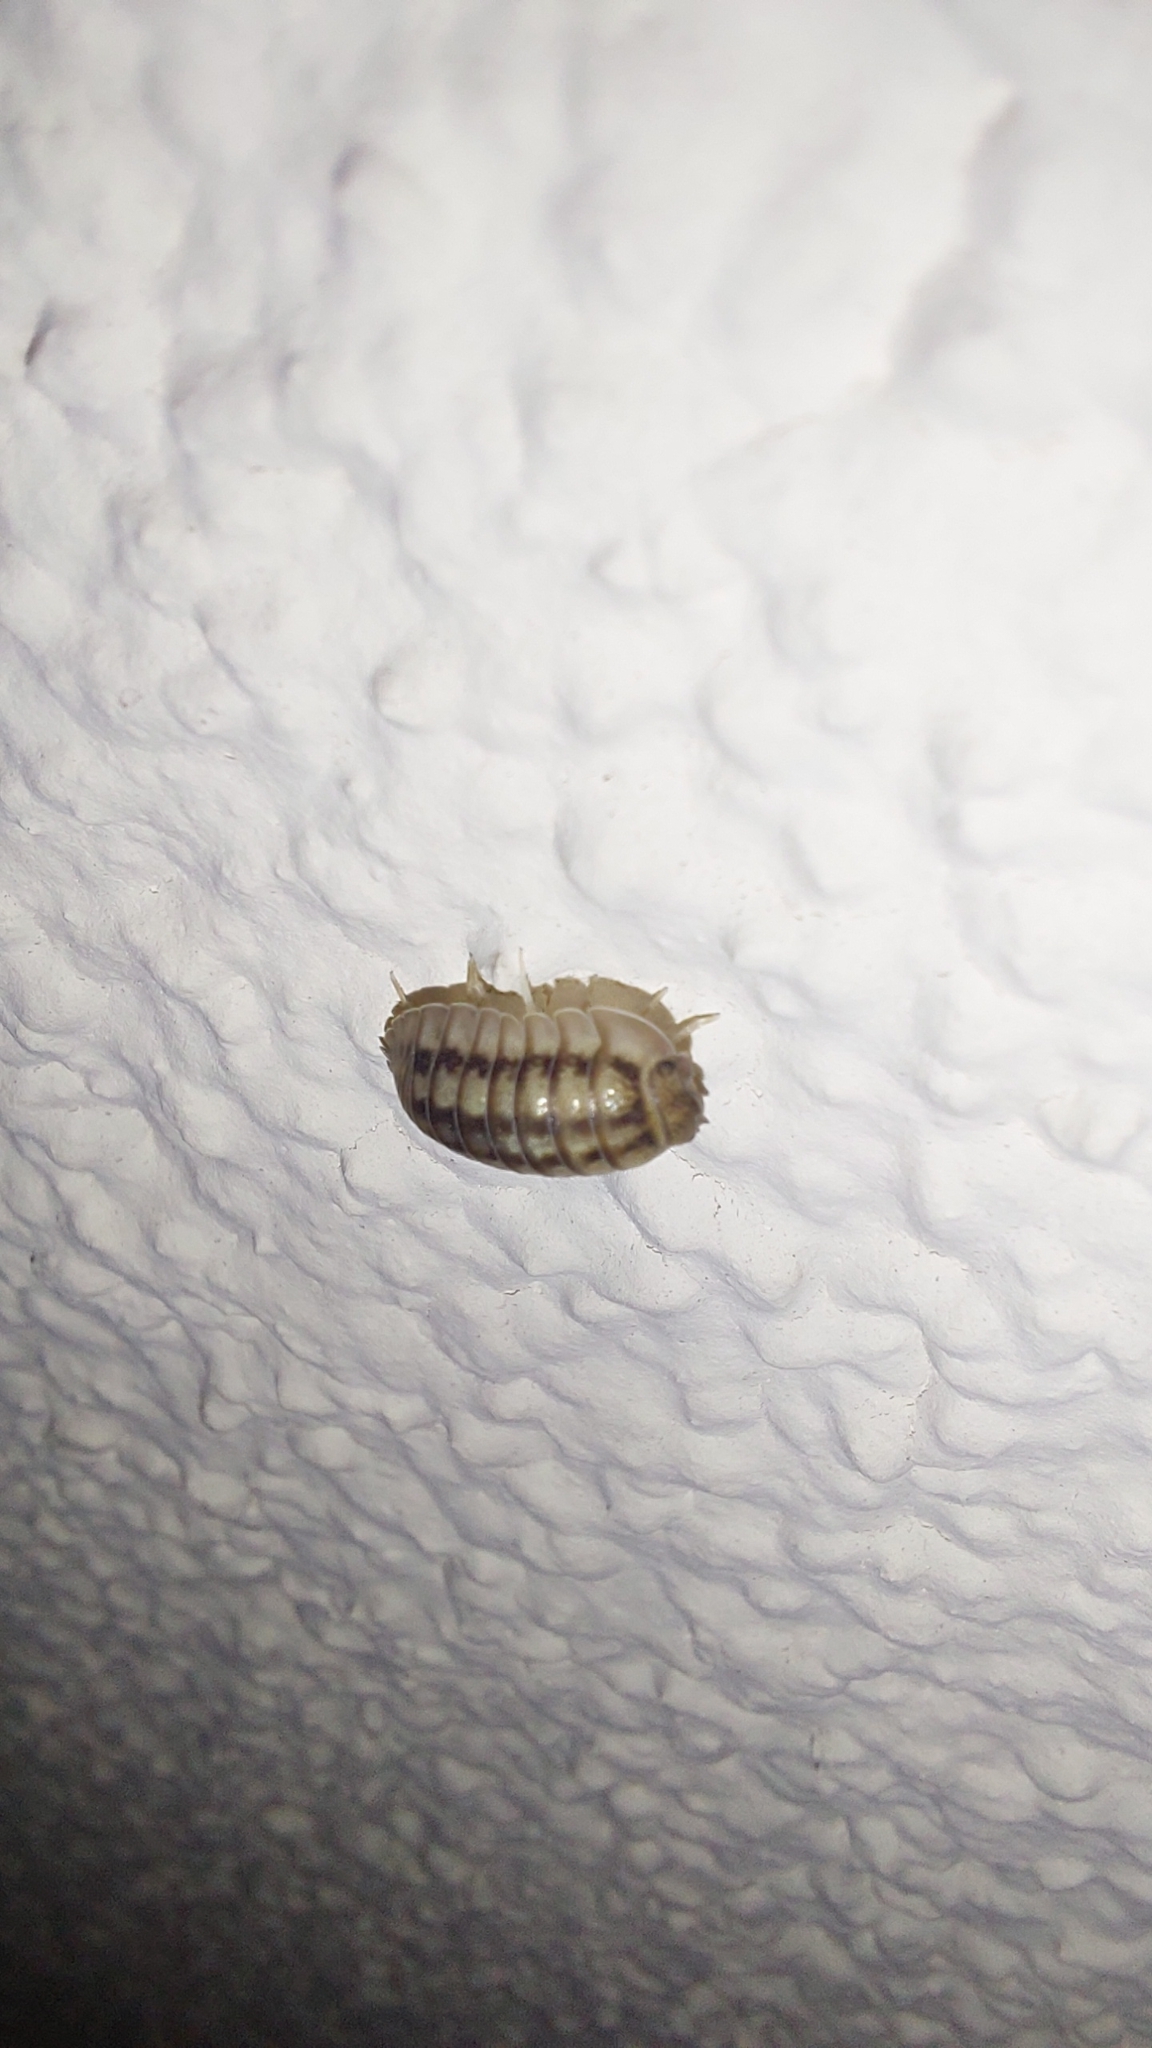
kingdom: Animalia
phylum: Arthropoda
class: Malacostraca
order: Isopoda
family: Armadillidiidae
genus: Armadillidium
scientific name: Armadillidium nasatum
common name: Isopod
